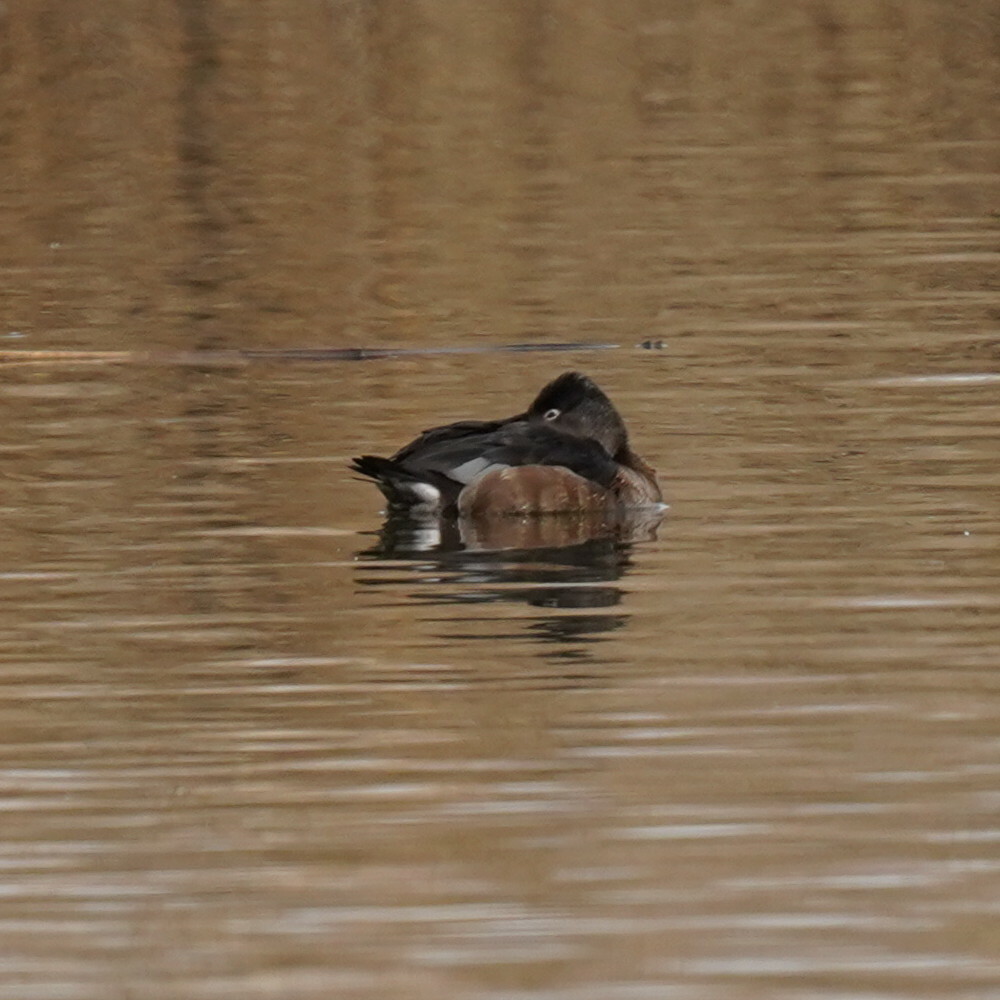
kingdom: Animalia
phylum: Chordata
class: Aves
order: Anseriformes
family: Anatidae
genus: Aythya
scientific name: Aythya collaris
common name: Ring-necked duck
